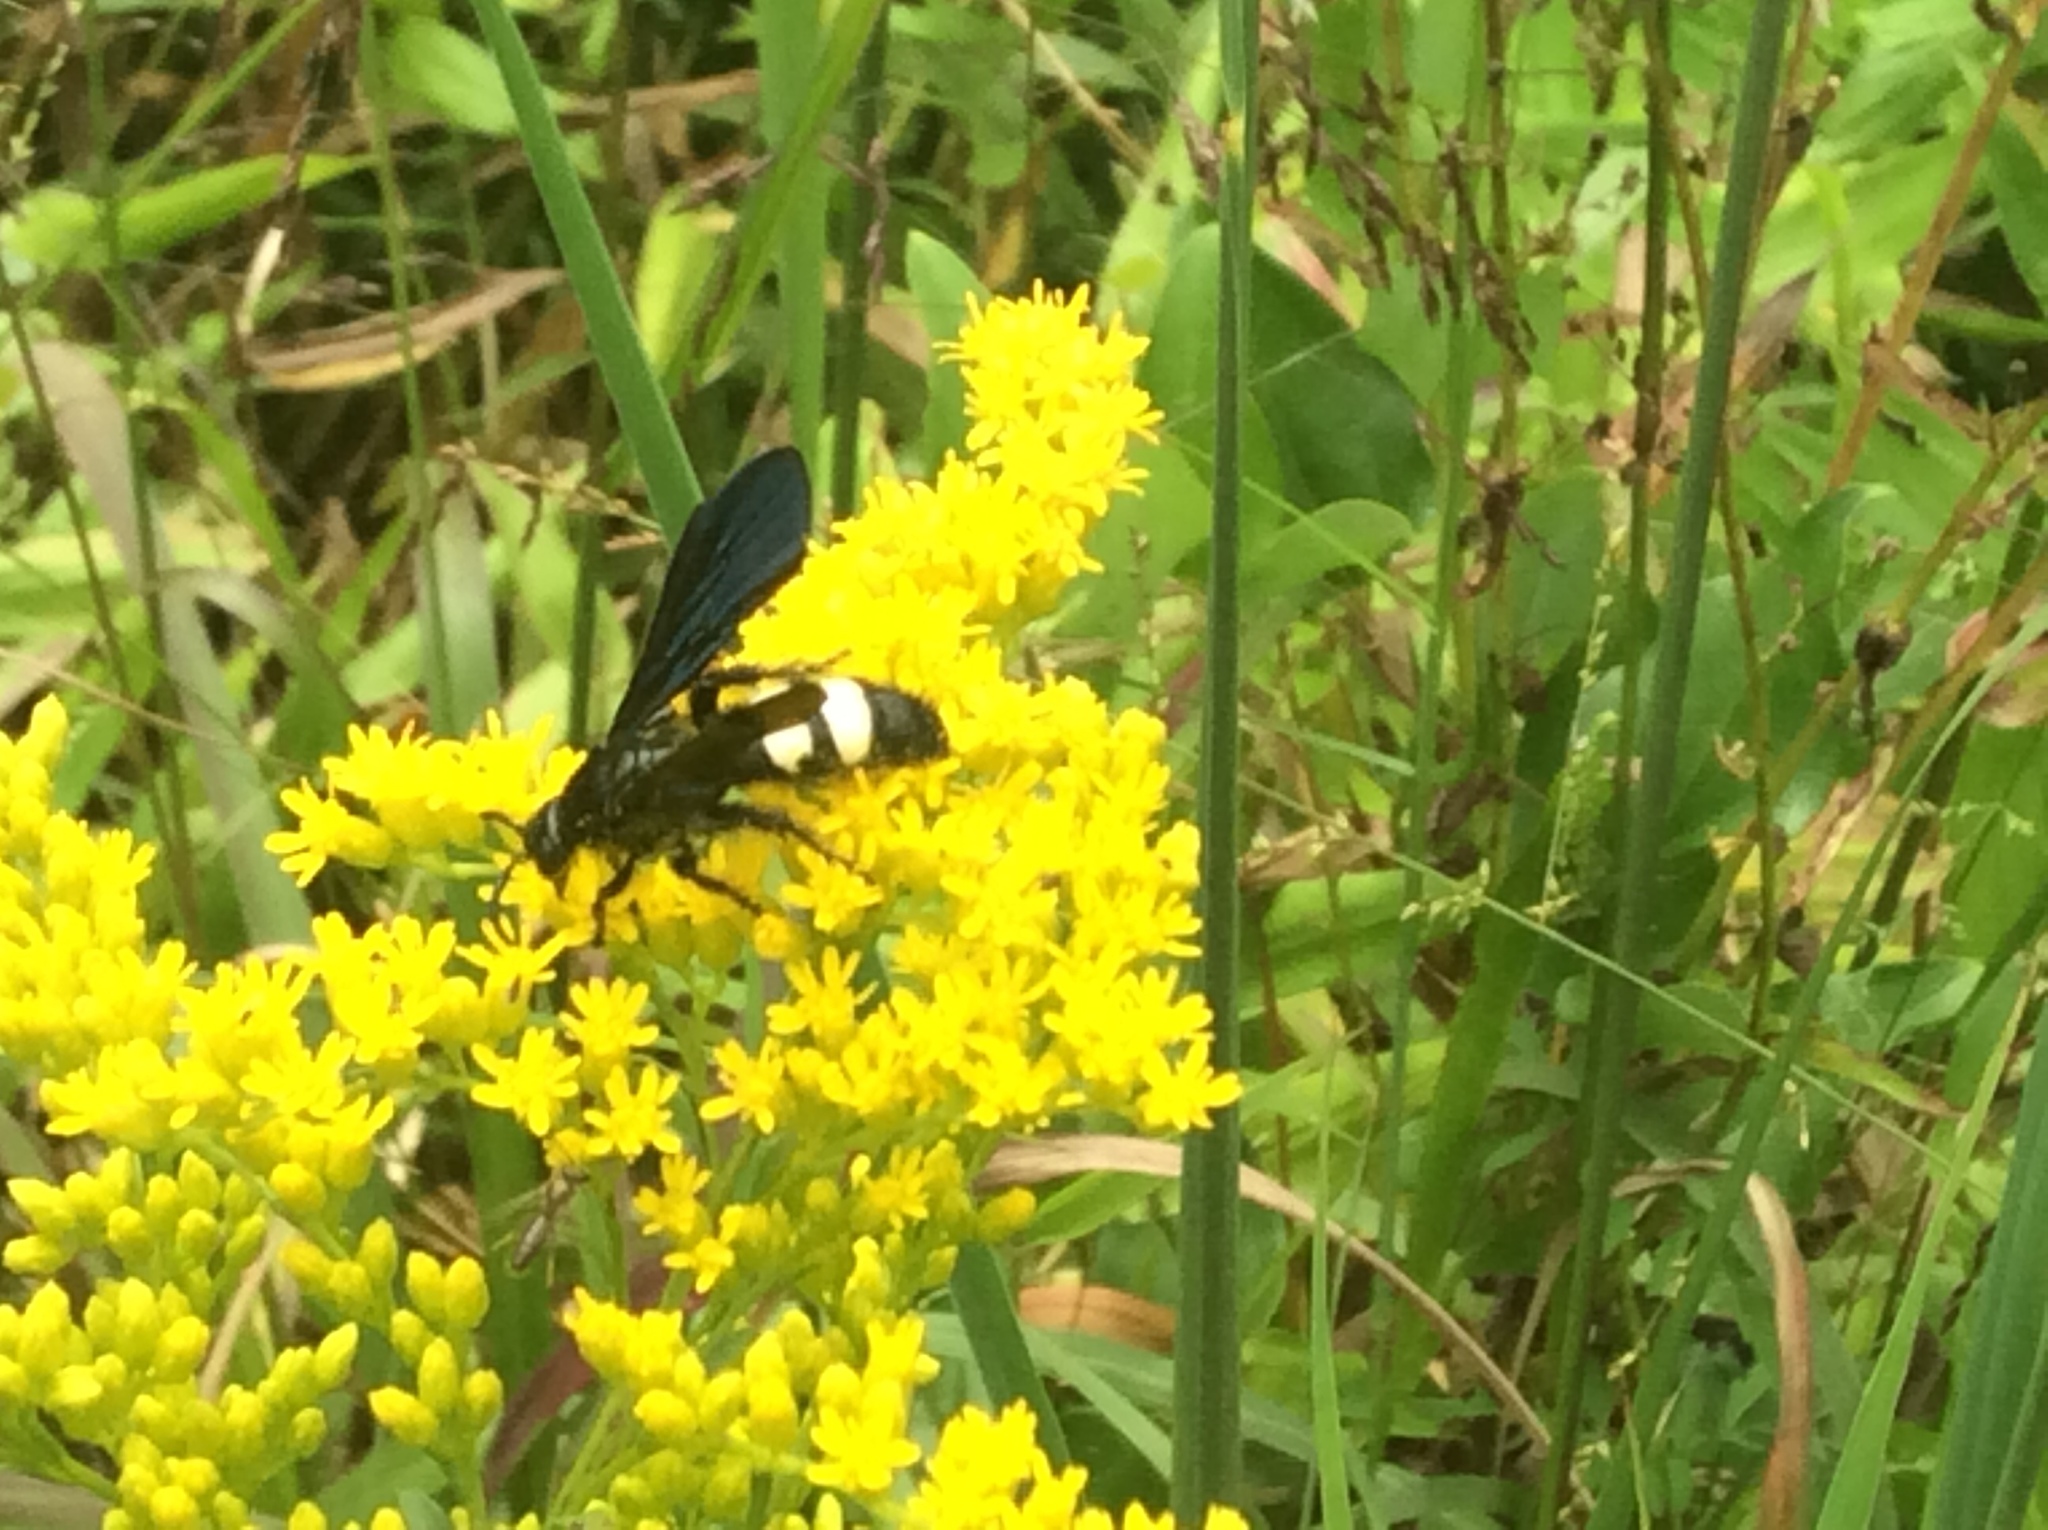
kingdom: Animalia
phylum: Arthropoda
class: Insecta
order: Hymenoptera
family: Scoliidae
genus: Scolia
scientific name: Scolia bicincta
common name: Double-banded scoliid wasp
